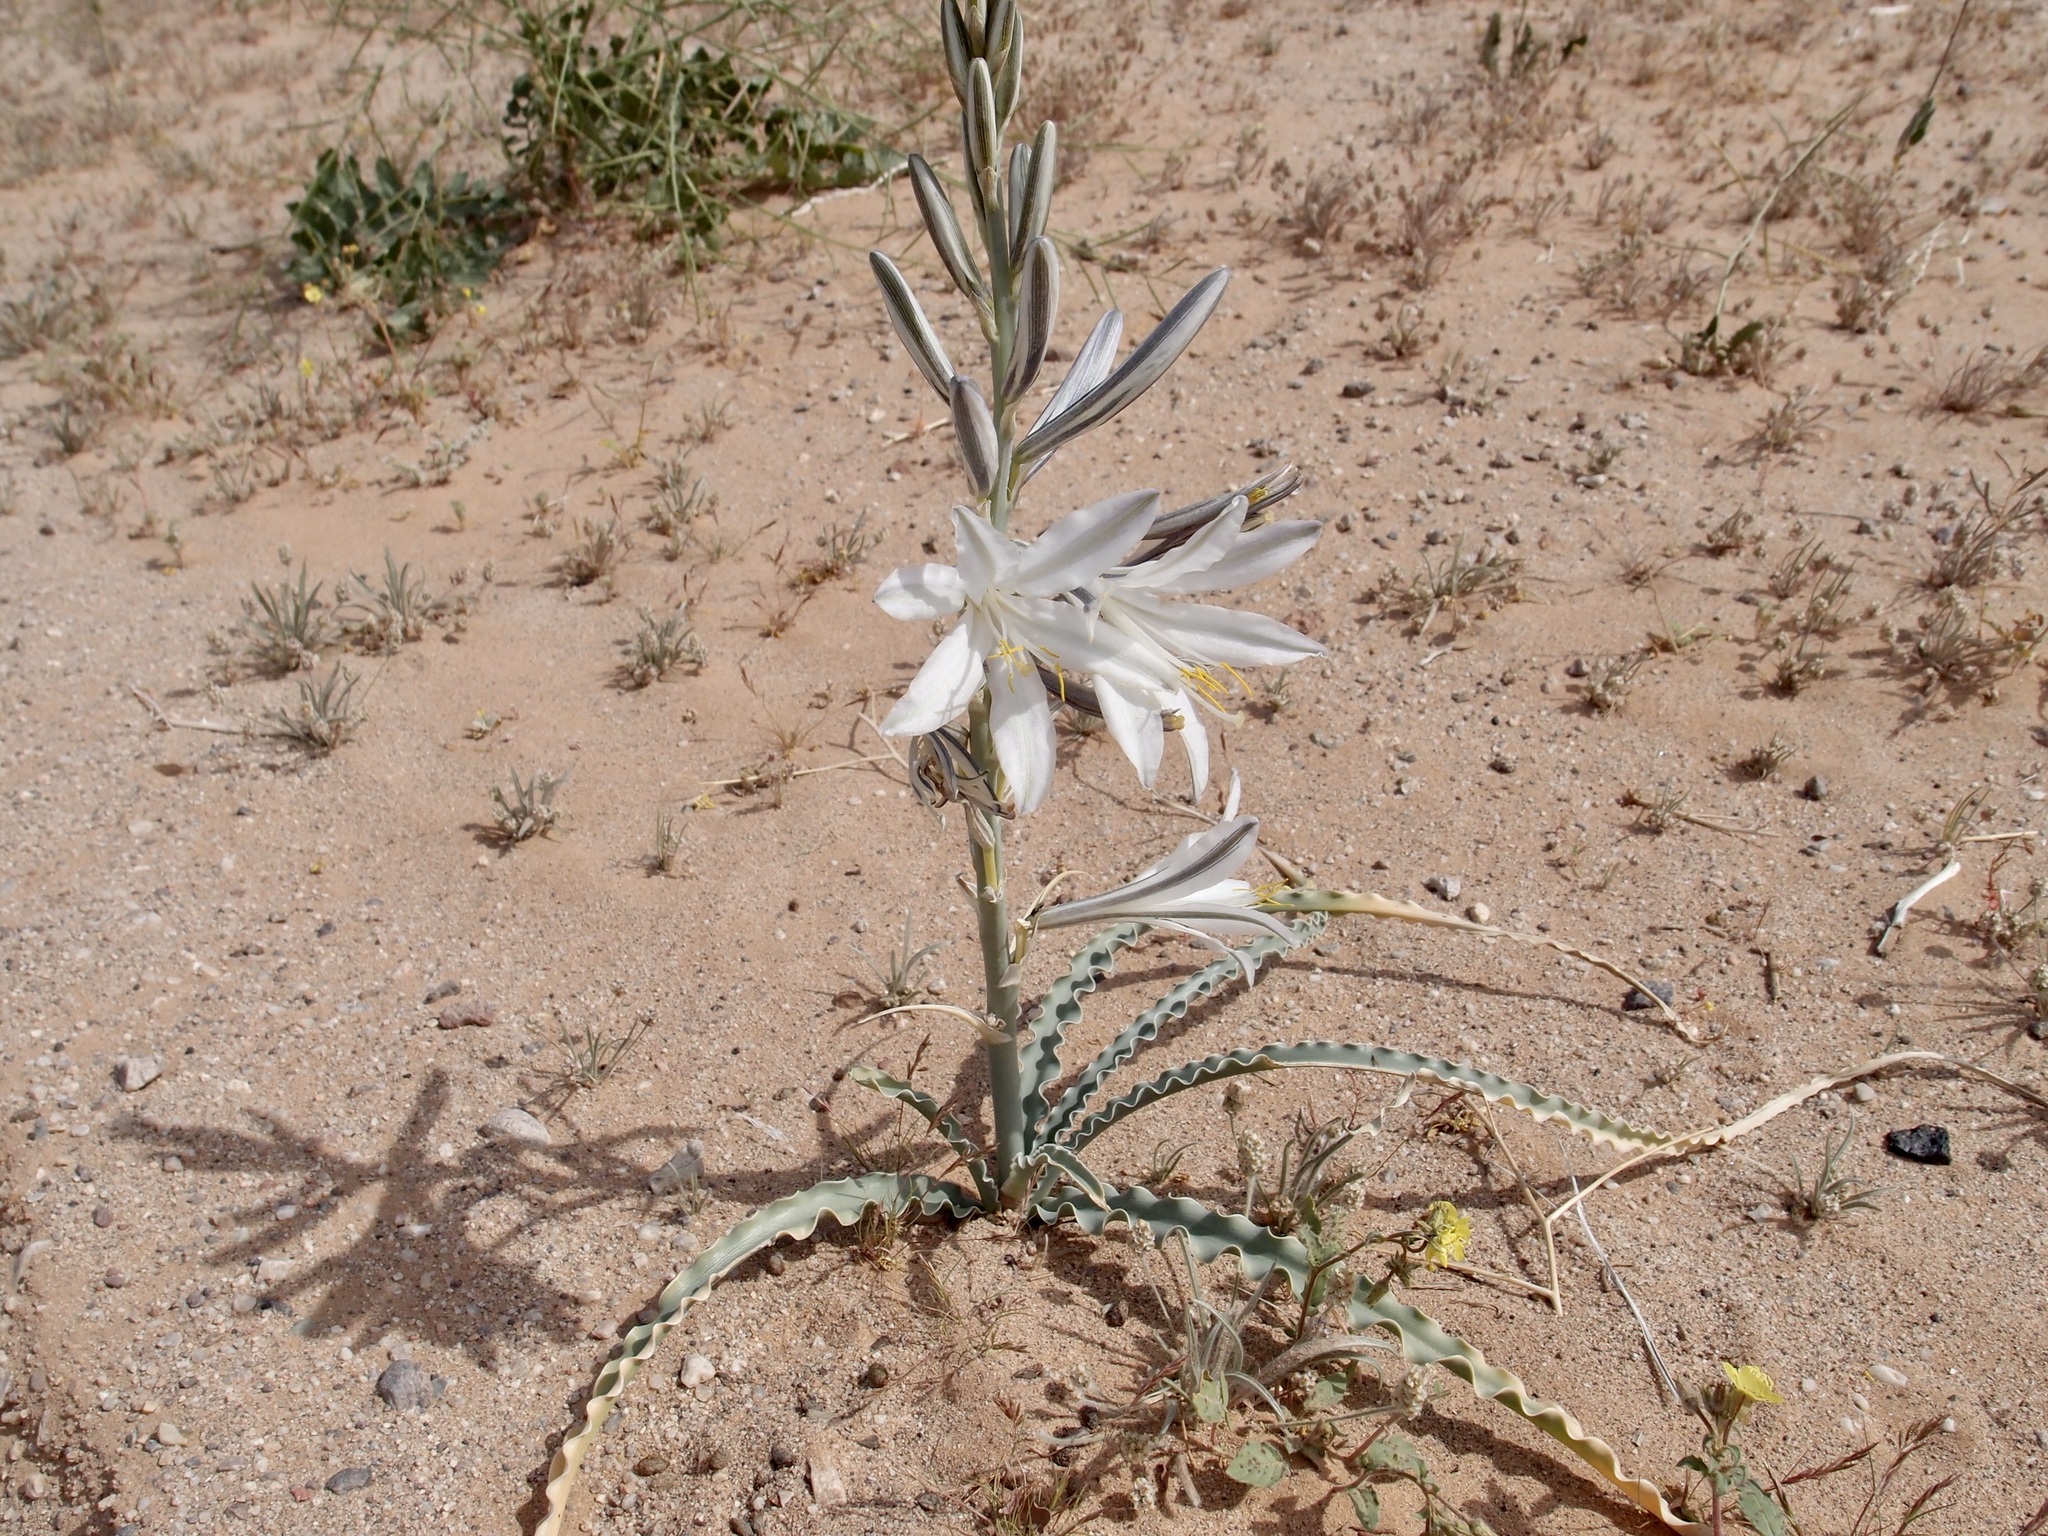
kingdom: Plantae
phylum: Tracheophyta
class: Liliopsida
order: Asparagales
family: Asparagaceae
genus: Hesperocallis
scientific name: Hesperocallis undulata
